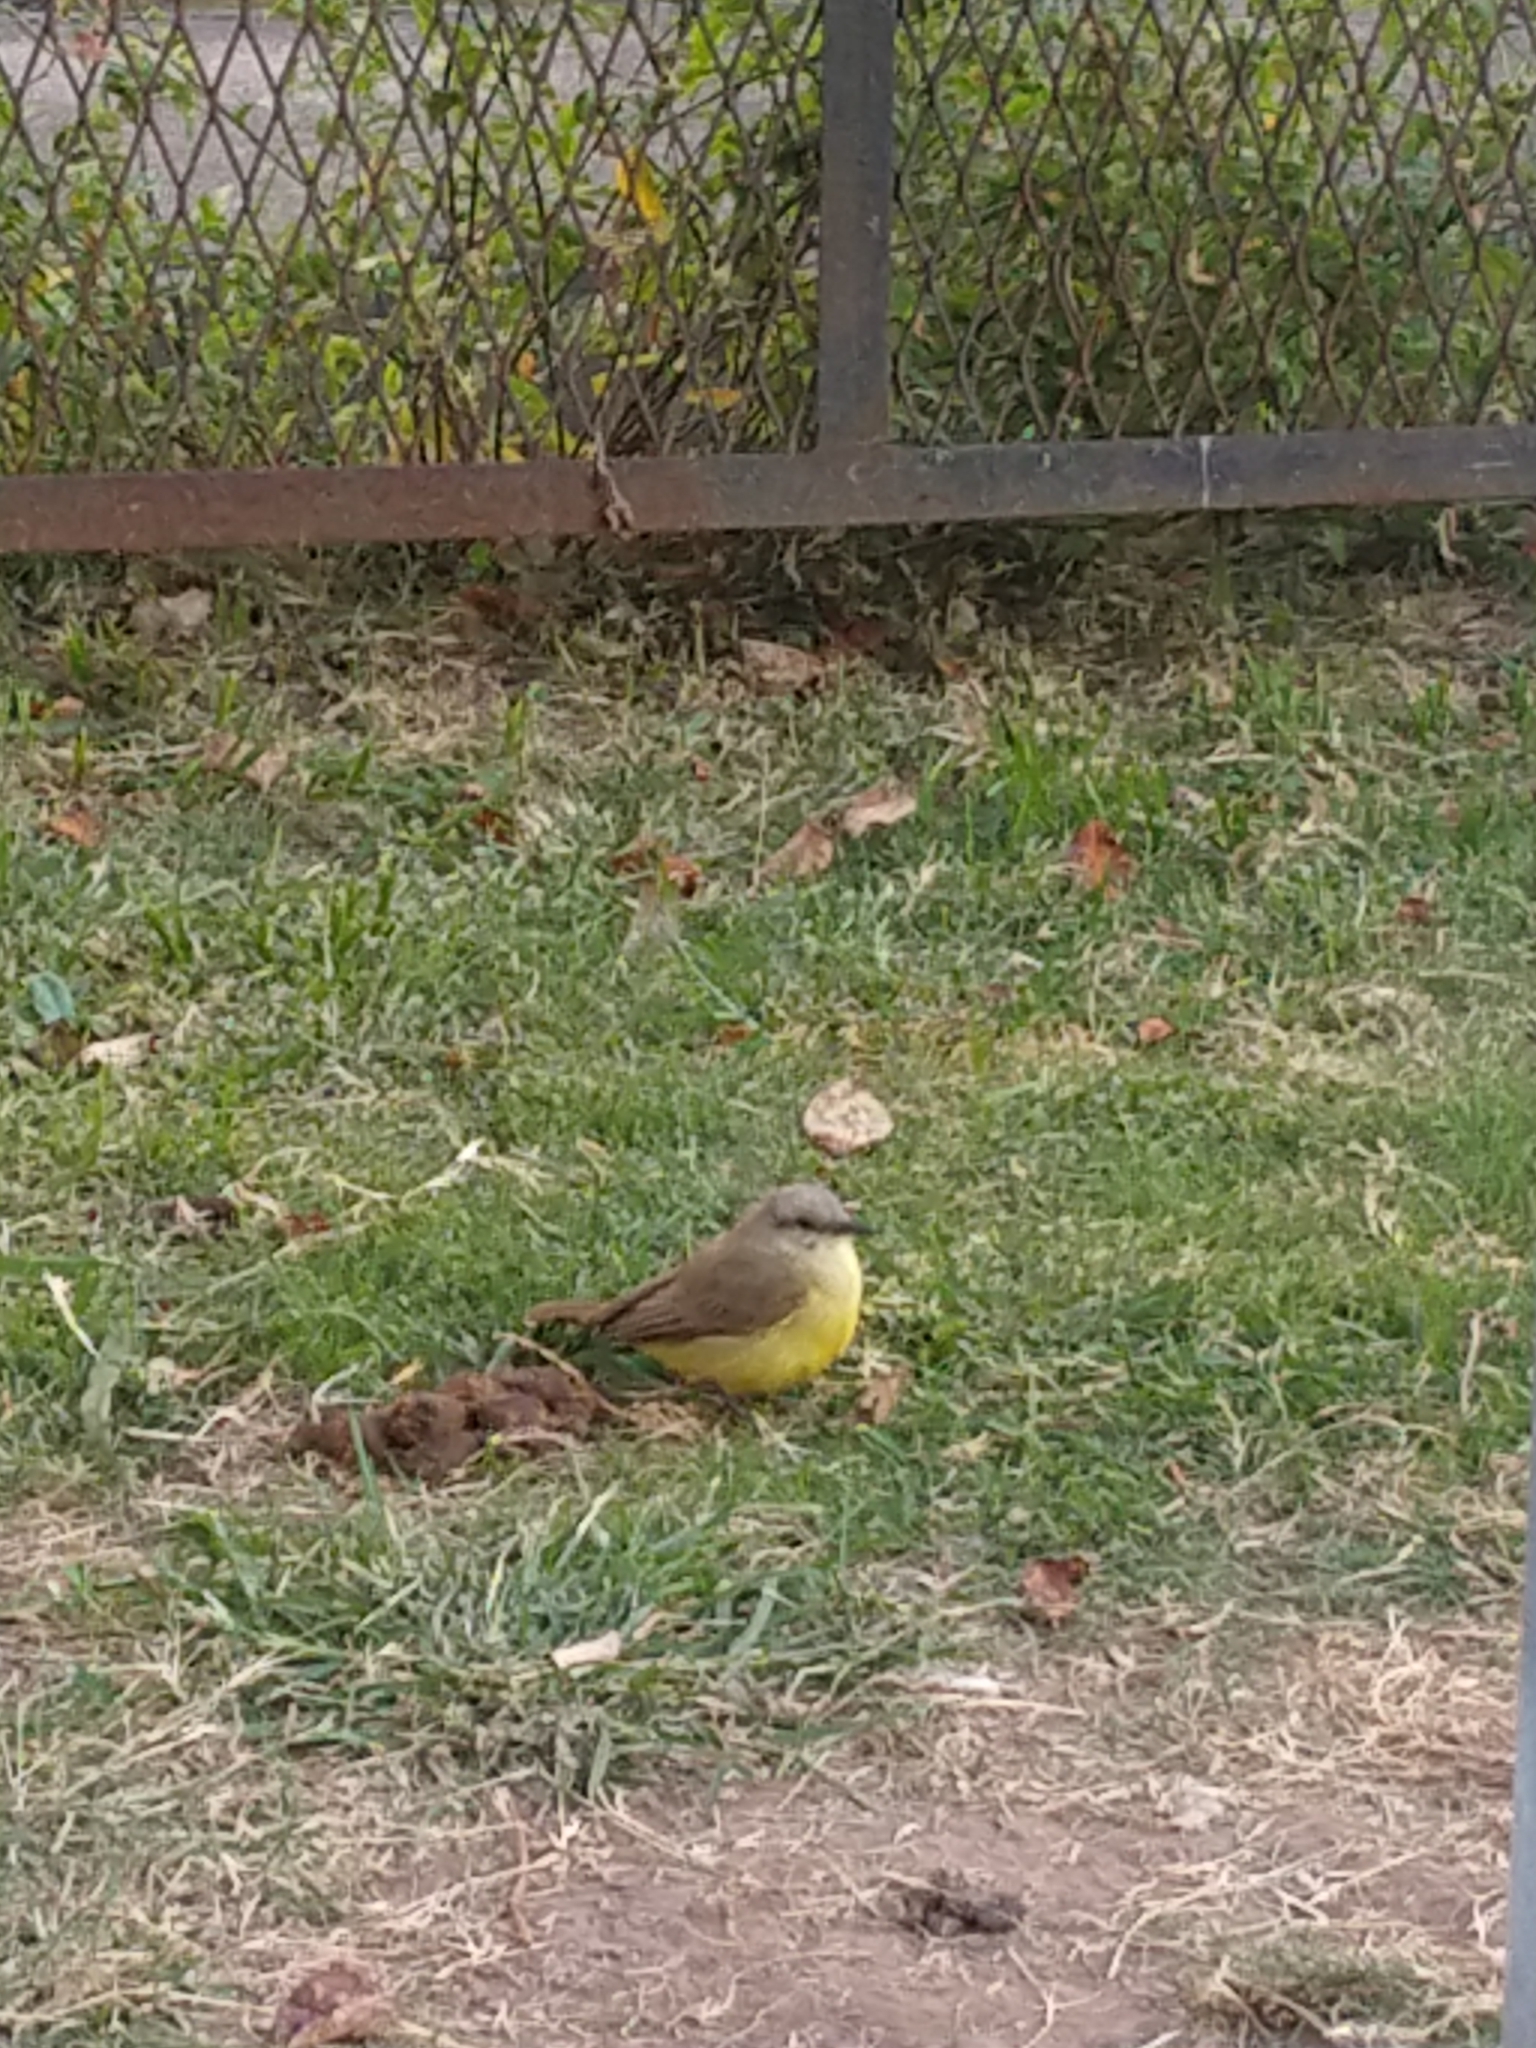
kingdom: Animalia
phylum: Chordata
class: Aves
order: Passeriformes
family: Tyrannidae
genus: Machetornis
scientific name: Machetornis rixosa
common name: Cattle tyrant
